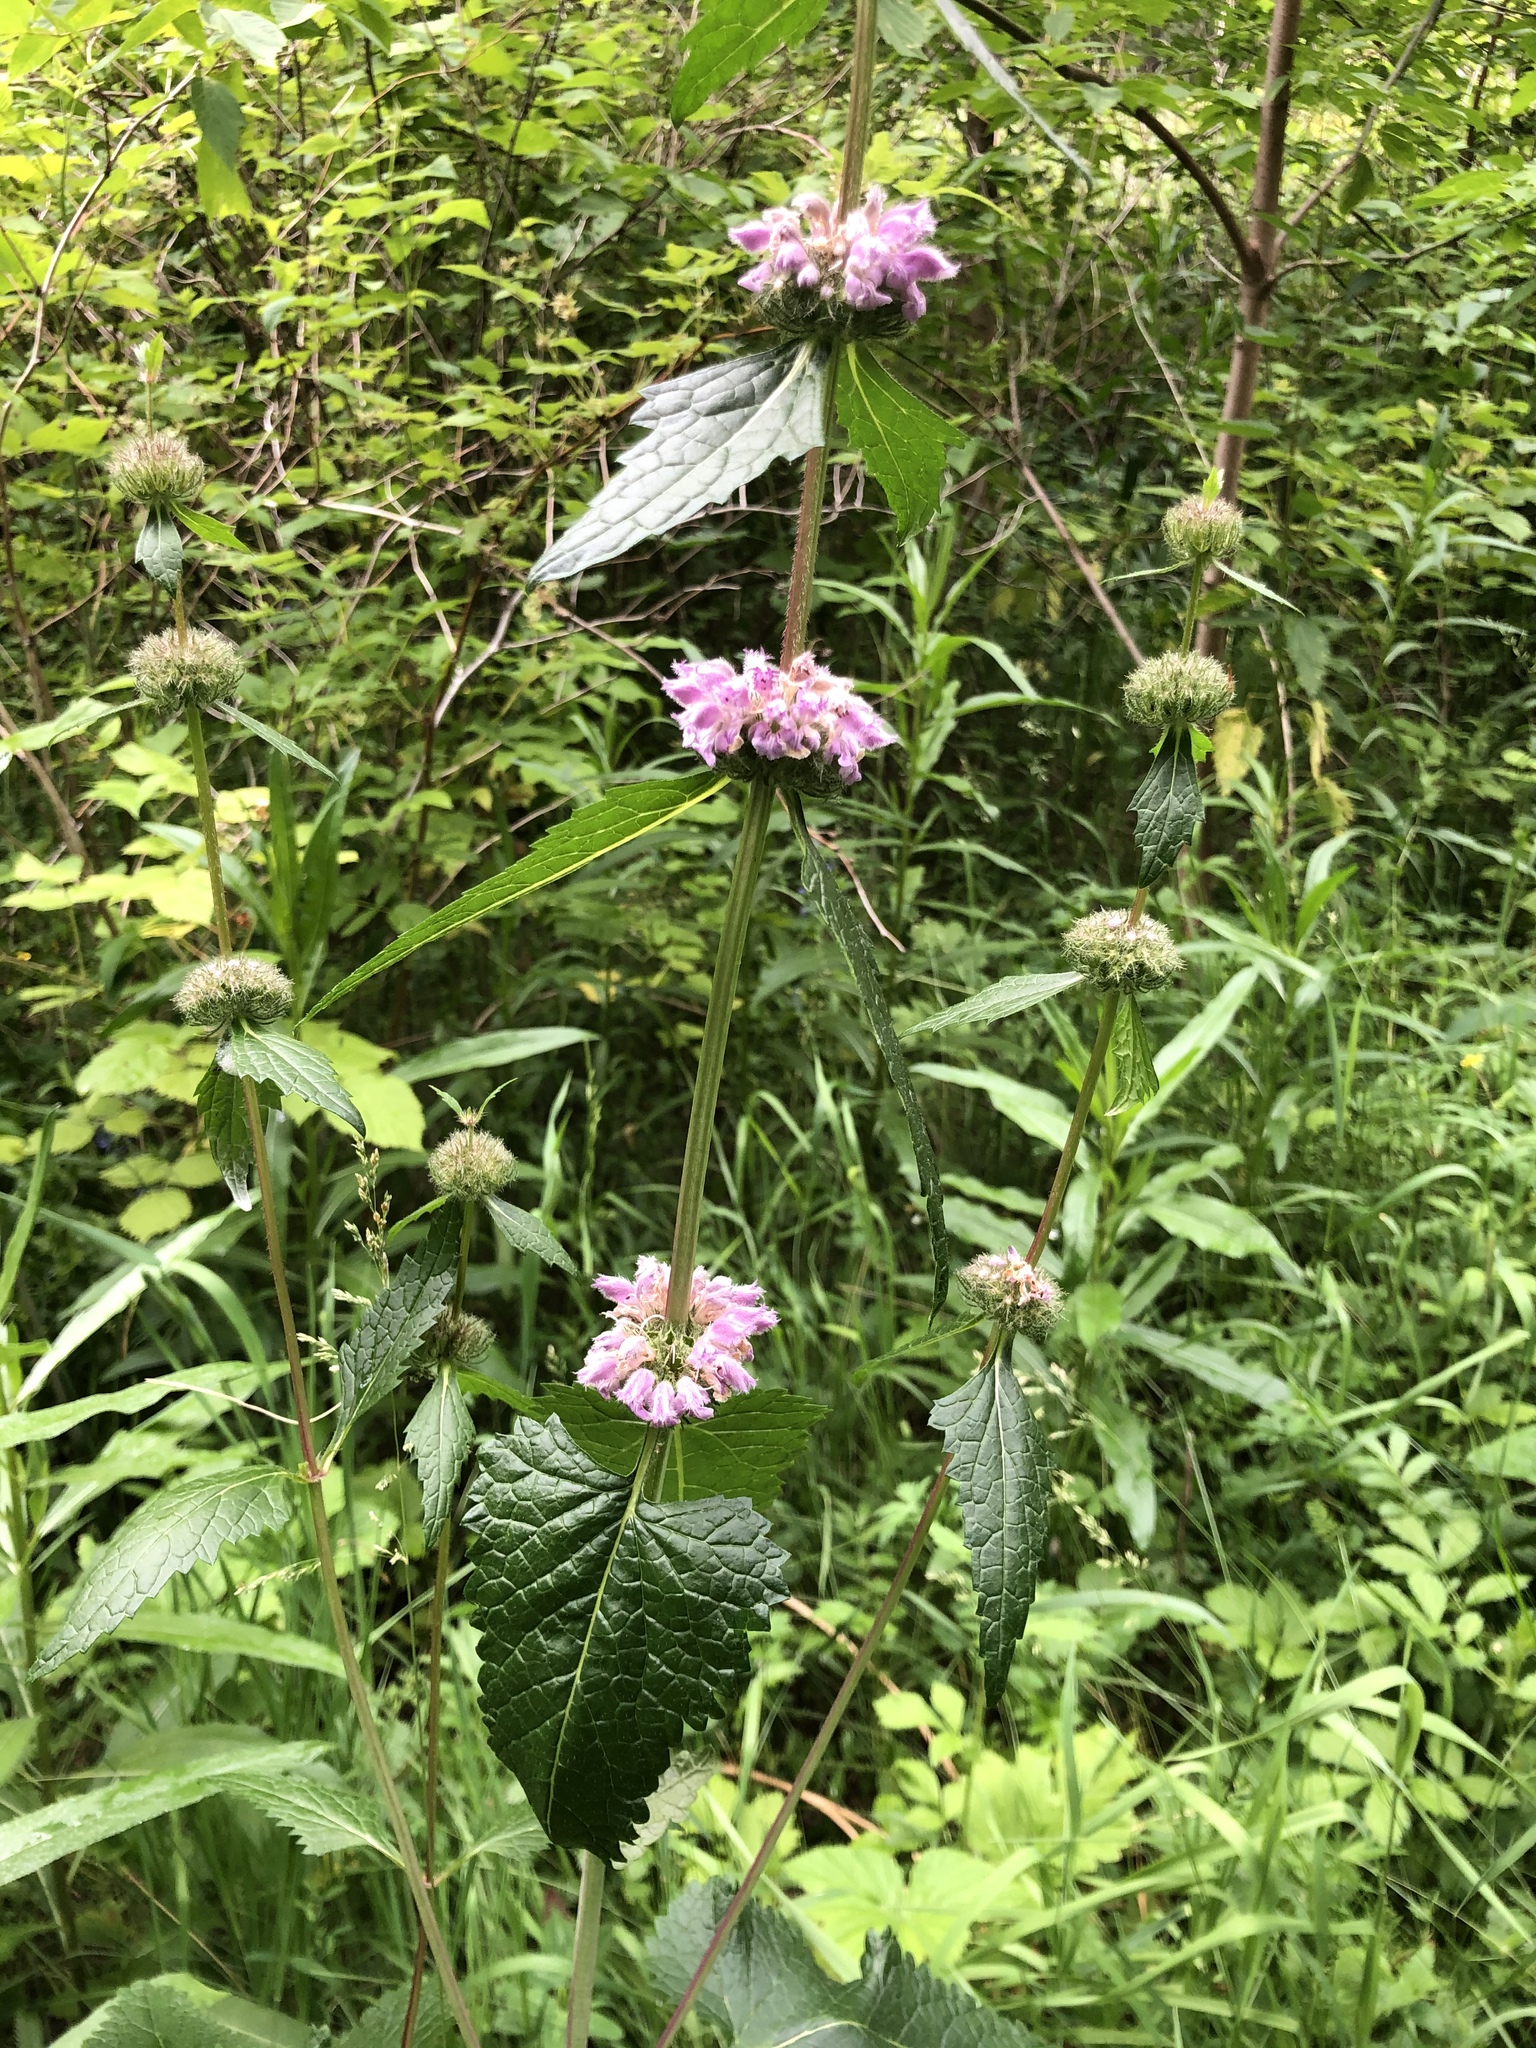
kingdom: Plantae
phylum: Tracheophyta
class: Magnoliopsida
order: Lamiales
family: Lamiaceae
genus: Phlomoides
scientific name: Phlomoides tuberosa
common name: Tuberous jerusalem sage
